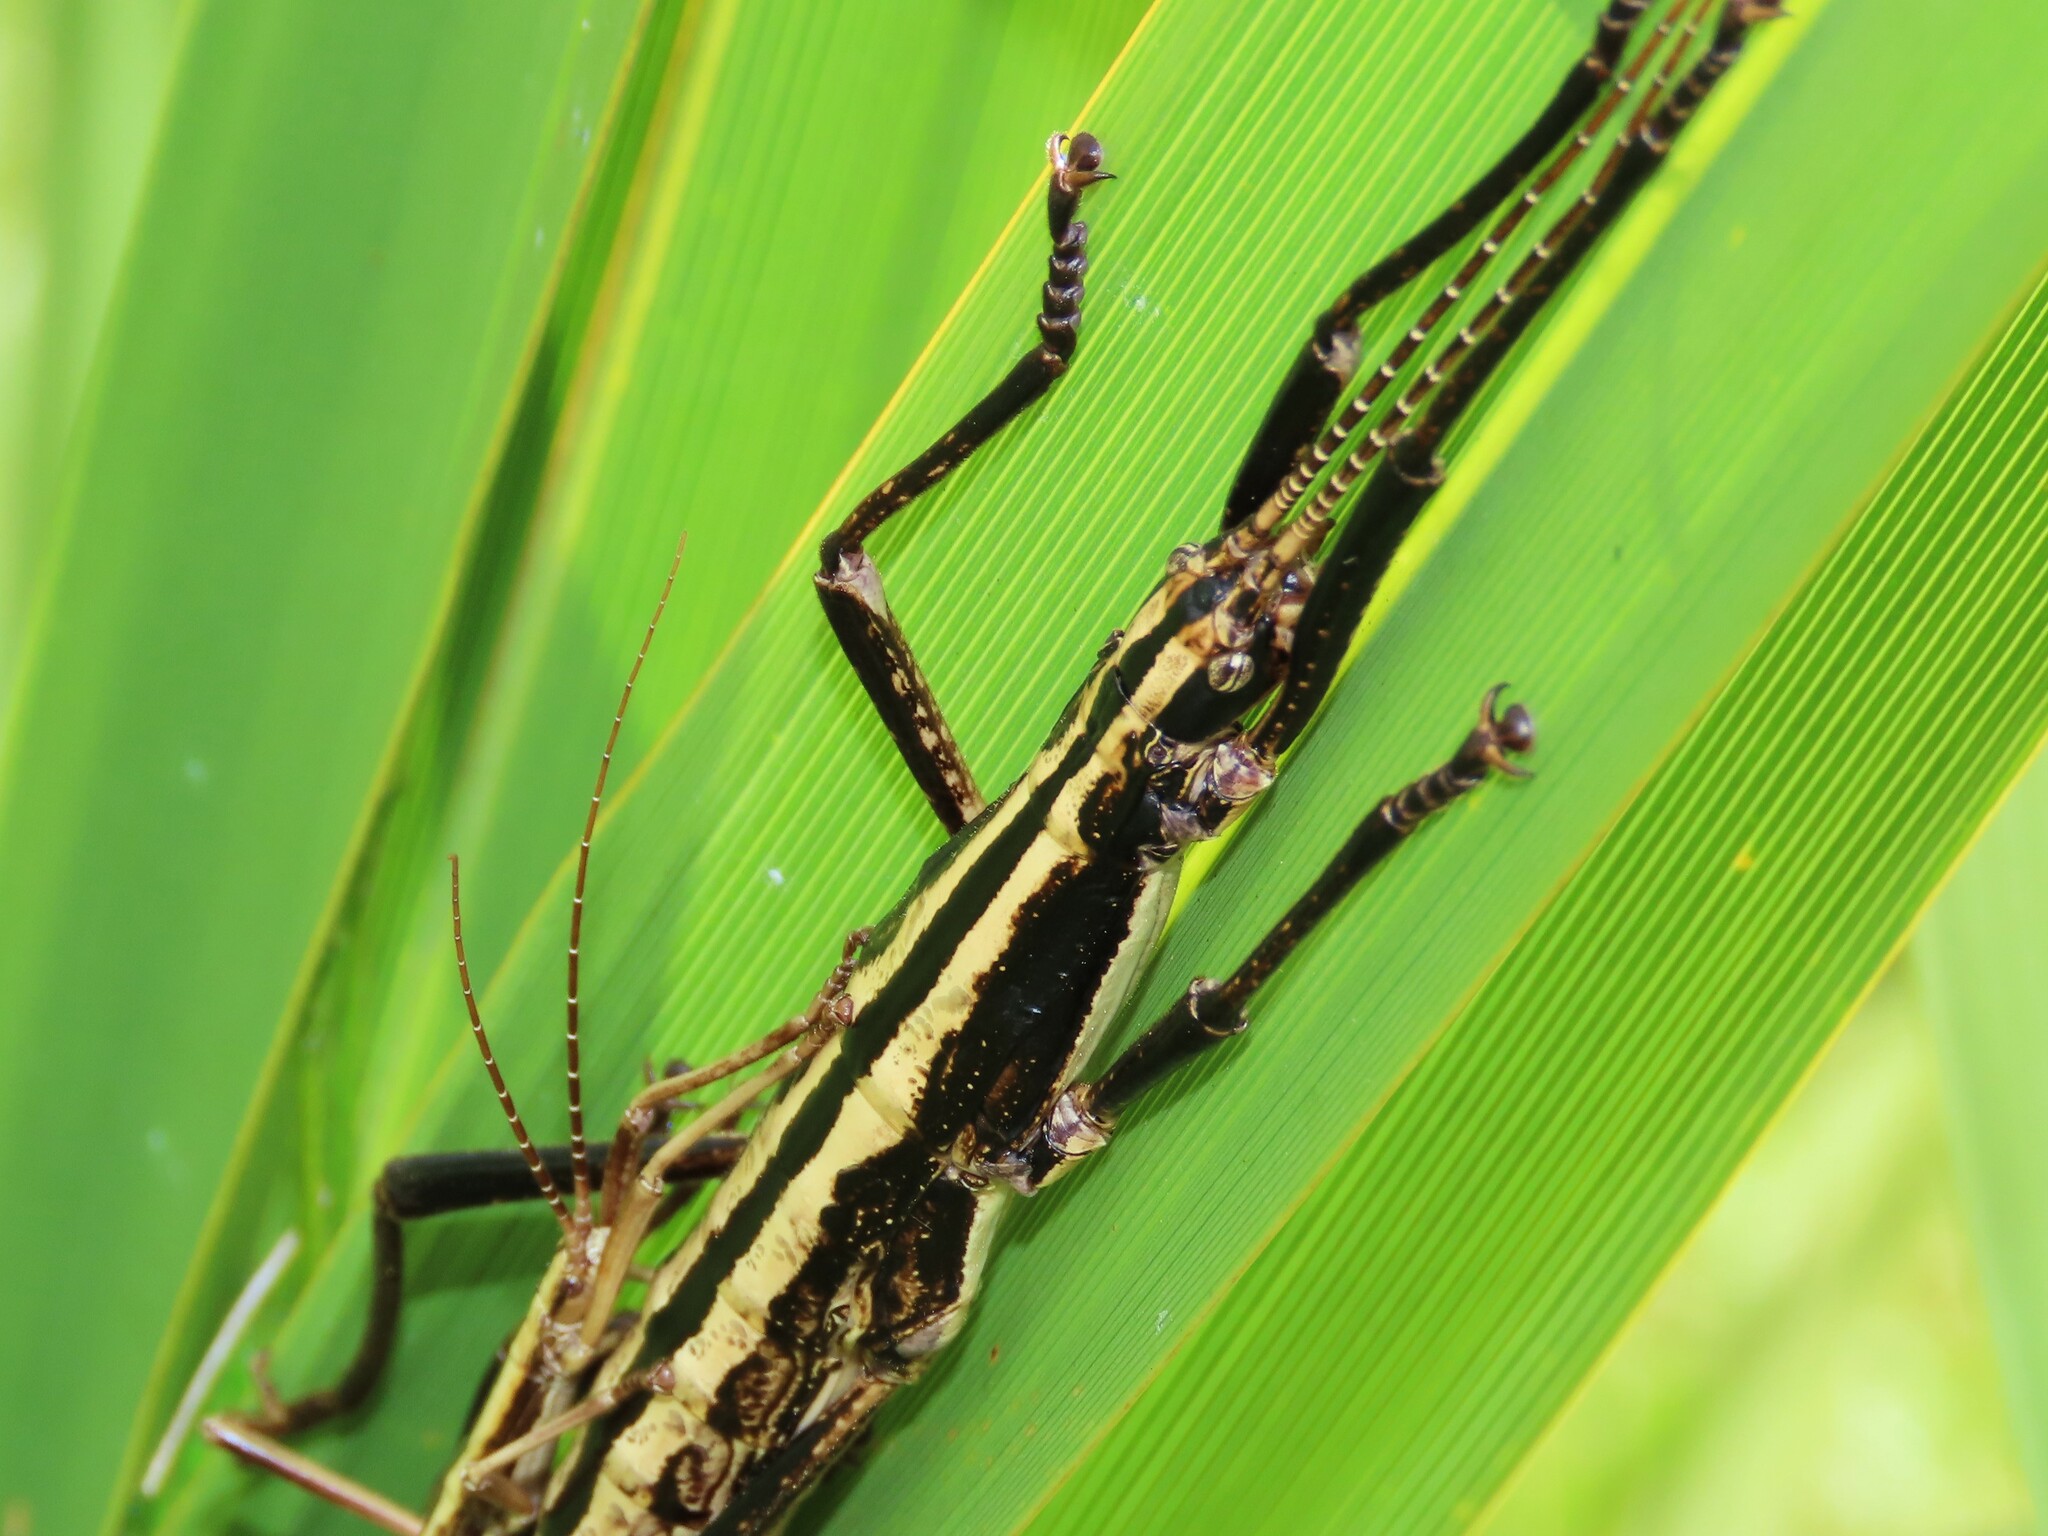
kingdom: Animalia
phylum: Arthropoda
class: Insecta
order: Phasmida
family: Pseudophasmatidae
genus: Anisomorpha
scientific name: Anisomorpha buprestoides
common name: Florida stick insect
